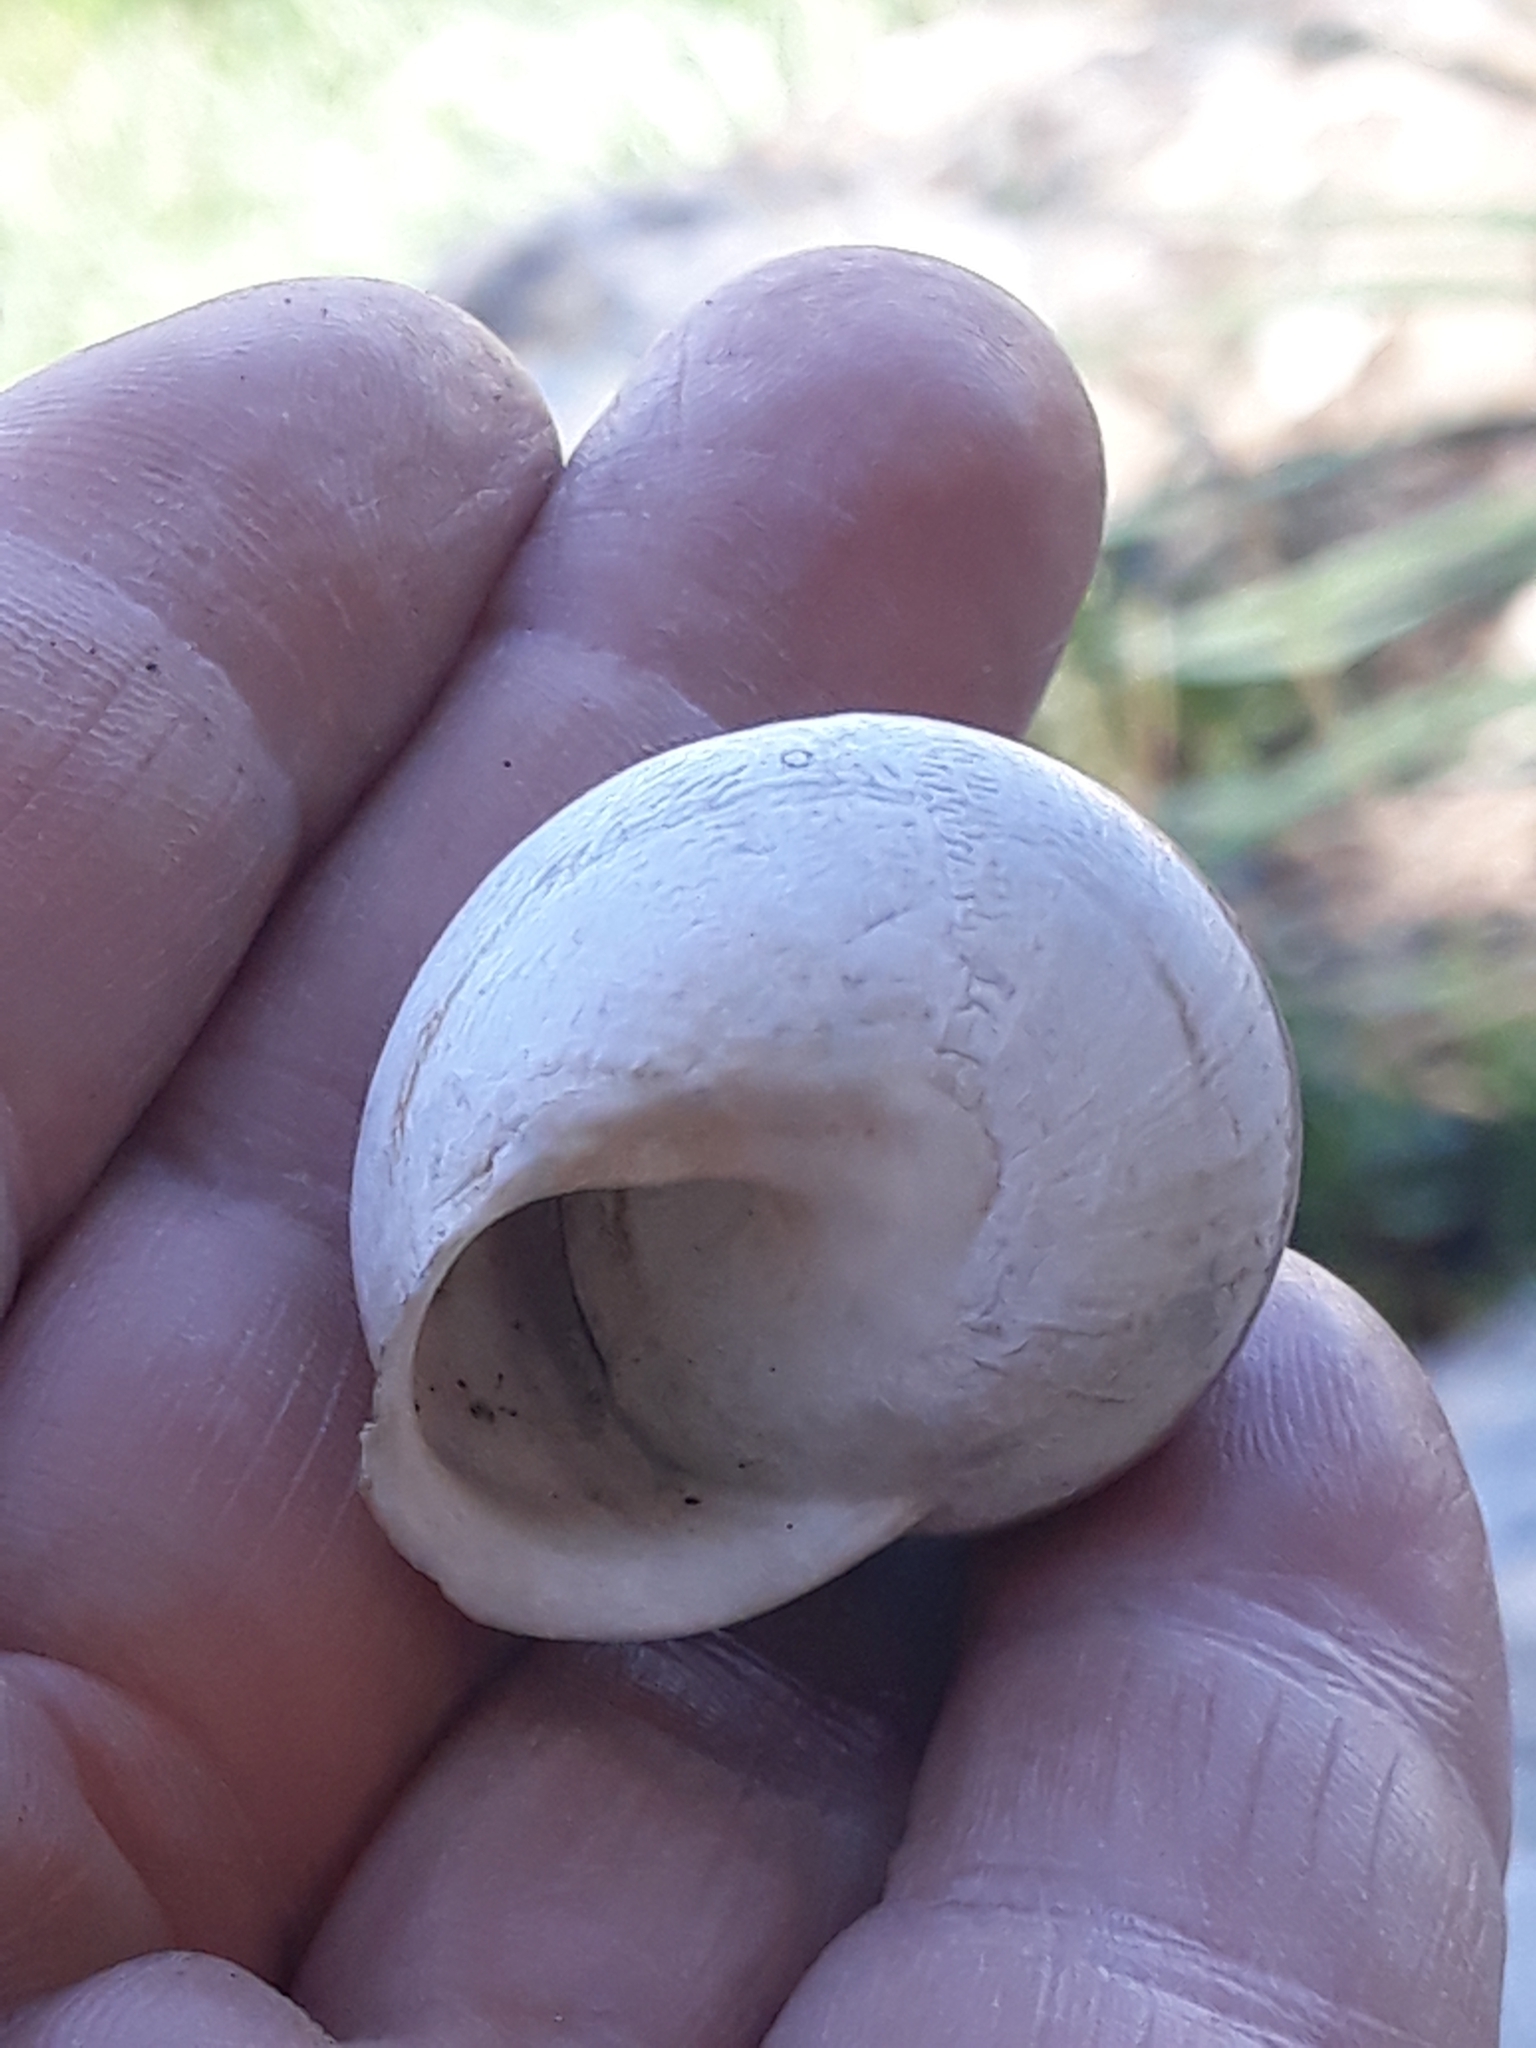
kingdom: Animalia
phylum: Mollusca
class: Gastropoda
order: Stylommatophora
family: Helicidae
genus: Eobania
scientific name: Eobania constantina
